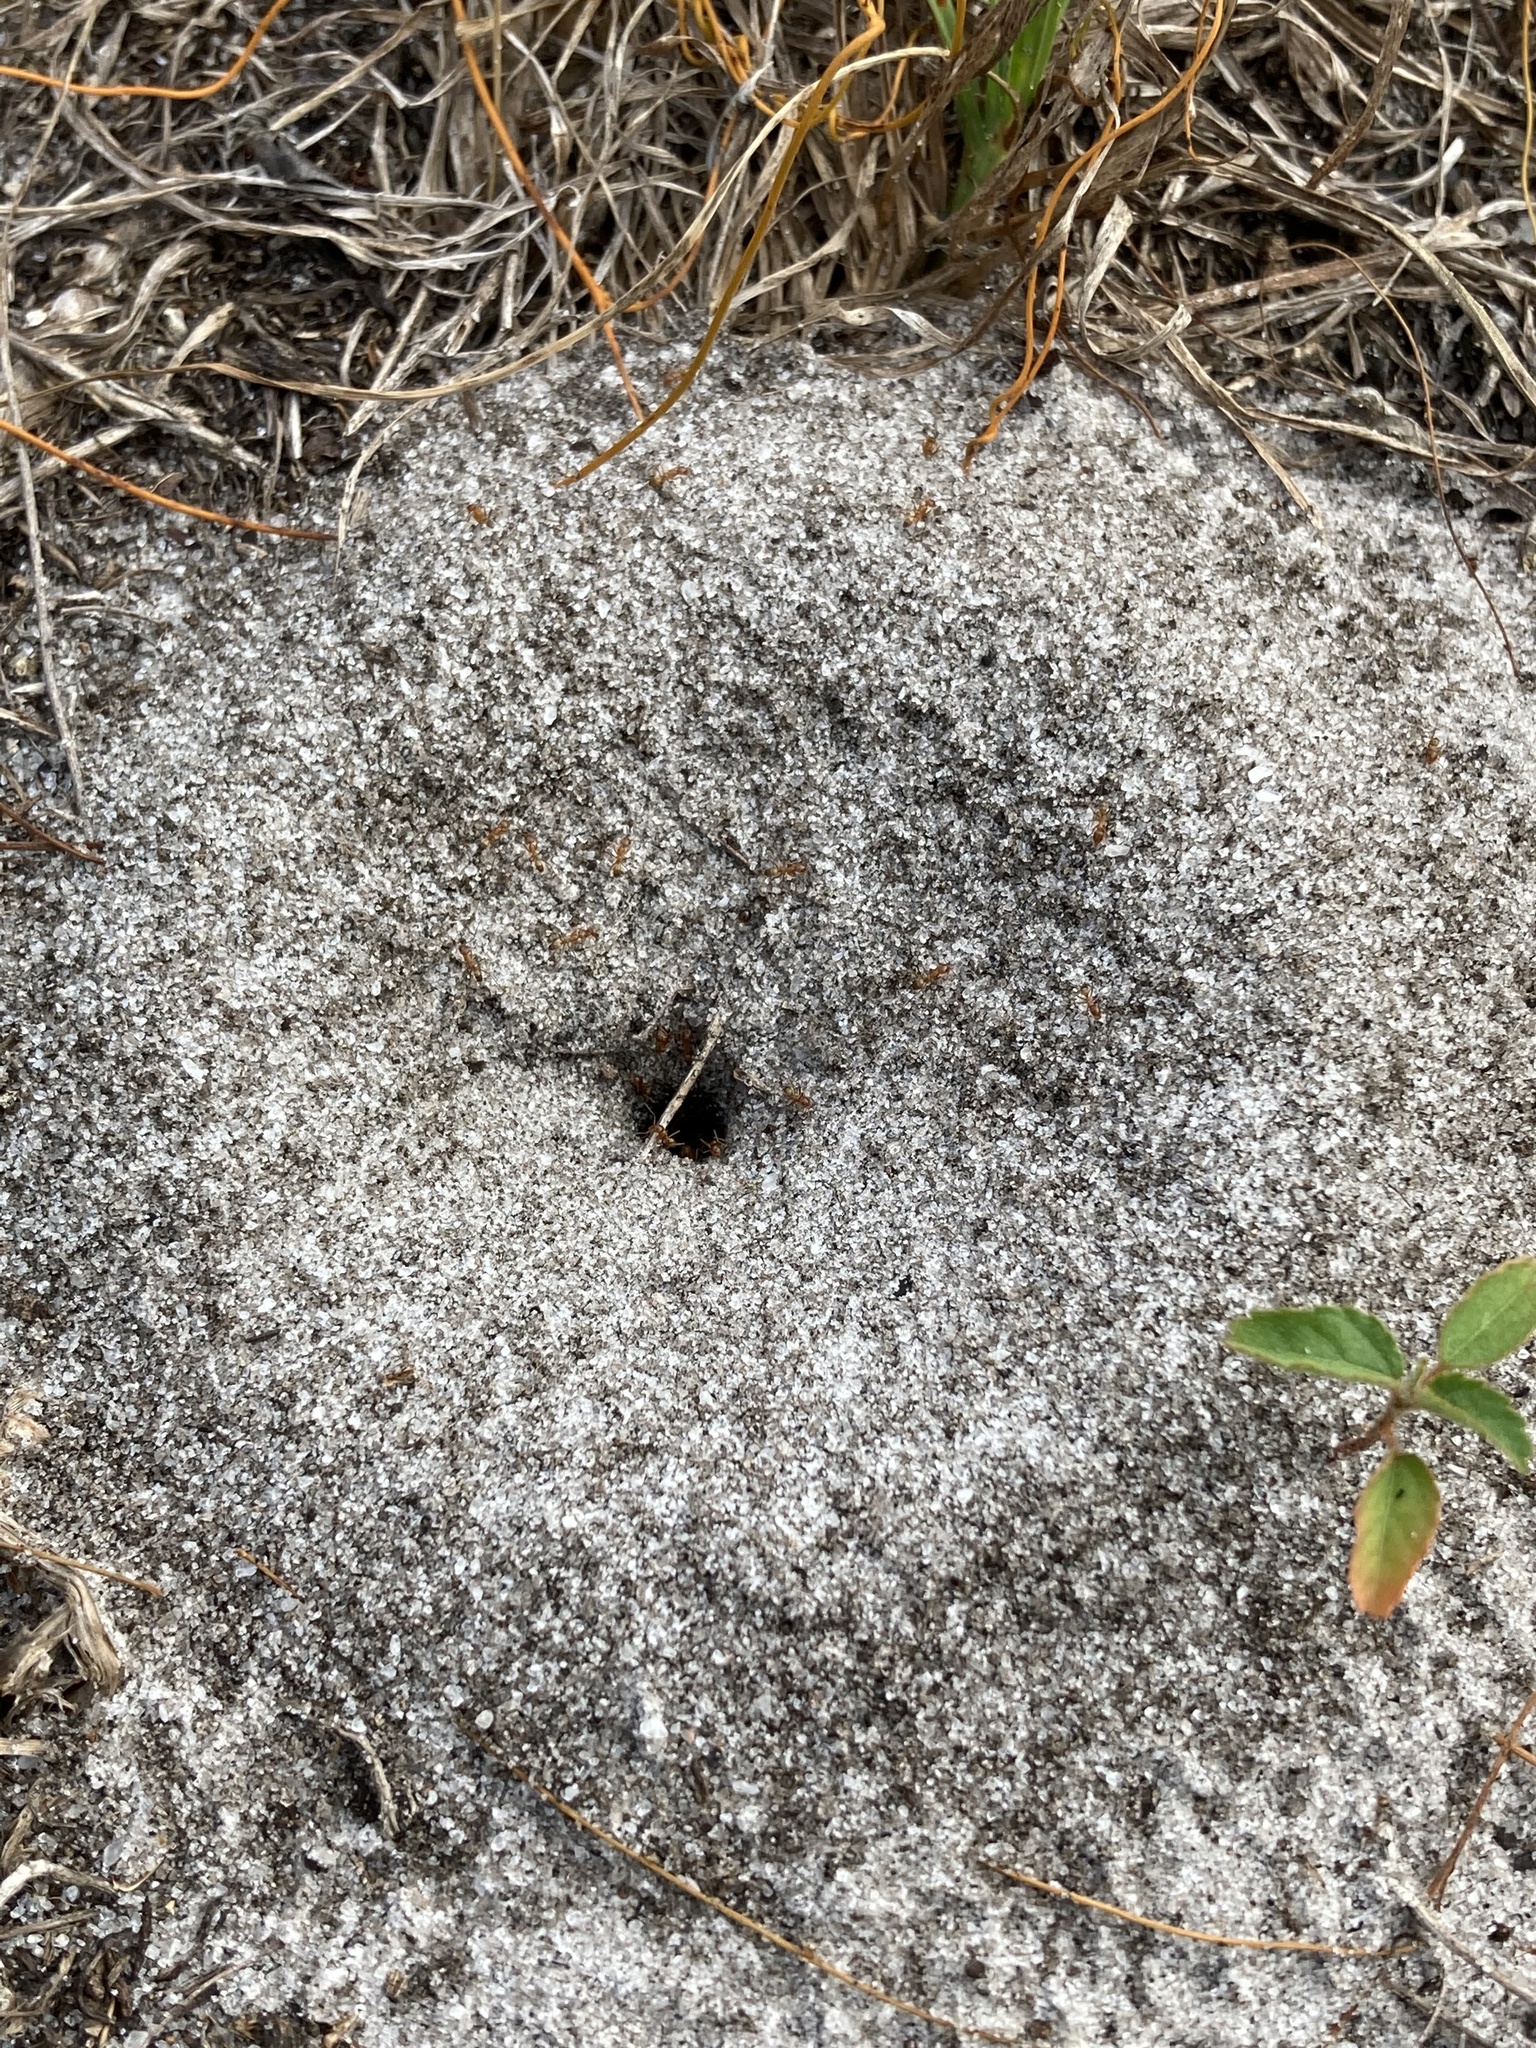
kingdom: Animalia
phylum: Arthropoda
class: Insecta
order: Hymenoptera
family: Formicidae
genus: Dorymyrmex
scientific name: Dorymyrmex bureni
